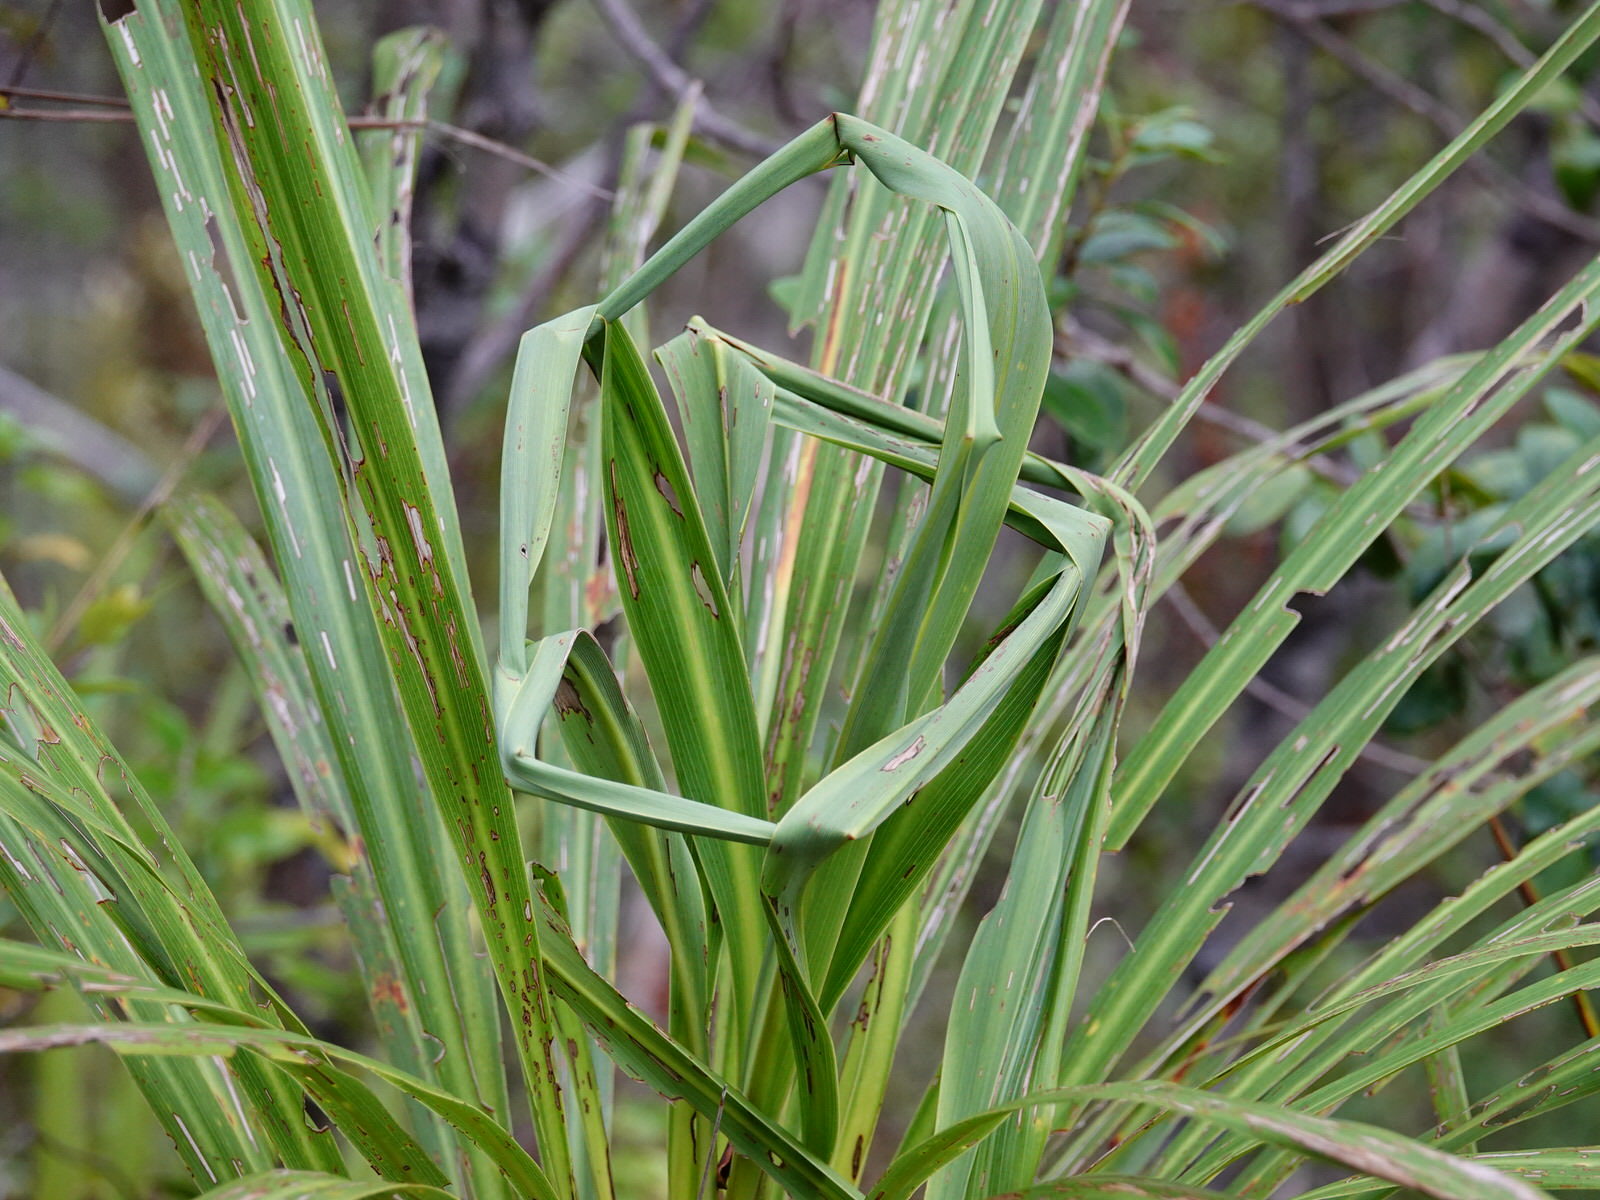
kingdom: Plantae
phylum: Tracheophyta
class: Liliopsida
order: Asparagales
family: Asparagaceae
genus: Cordyline
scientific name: Cordyline banksii
